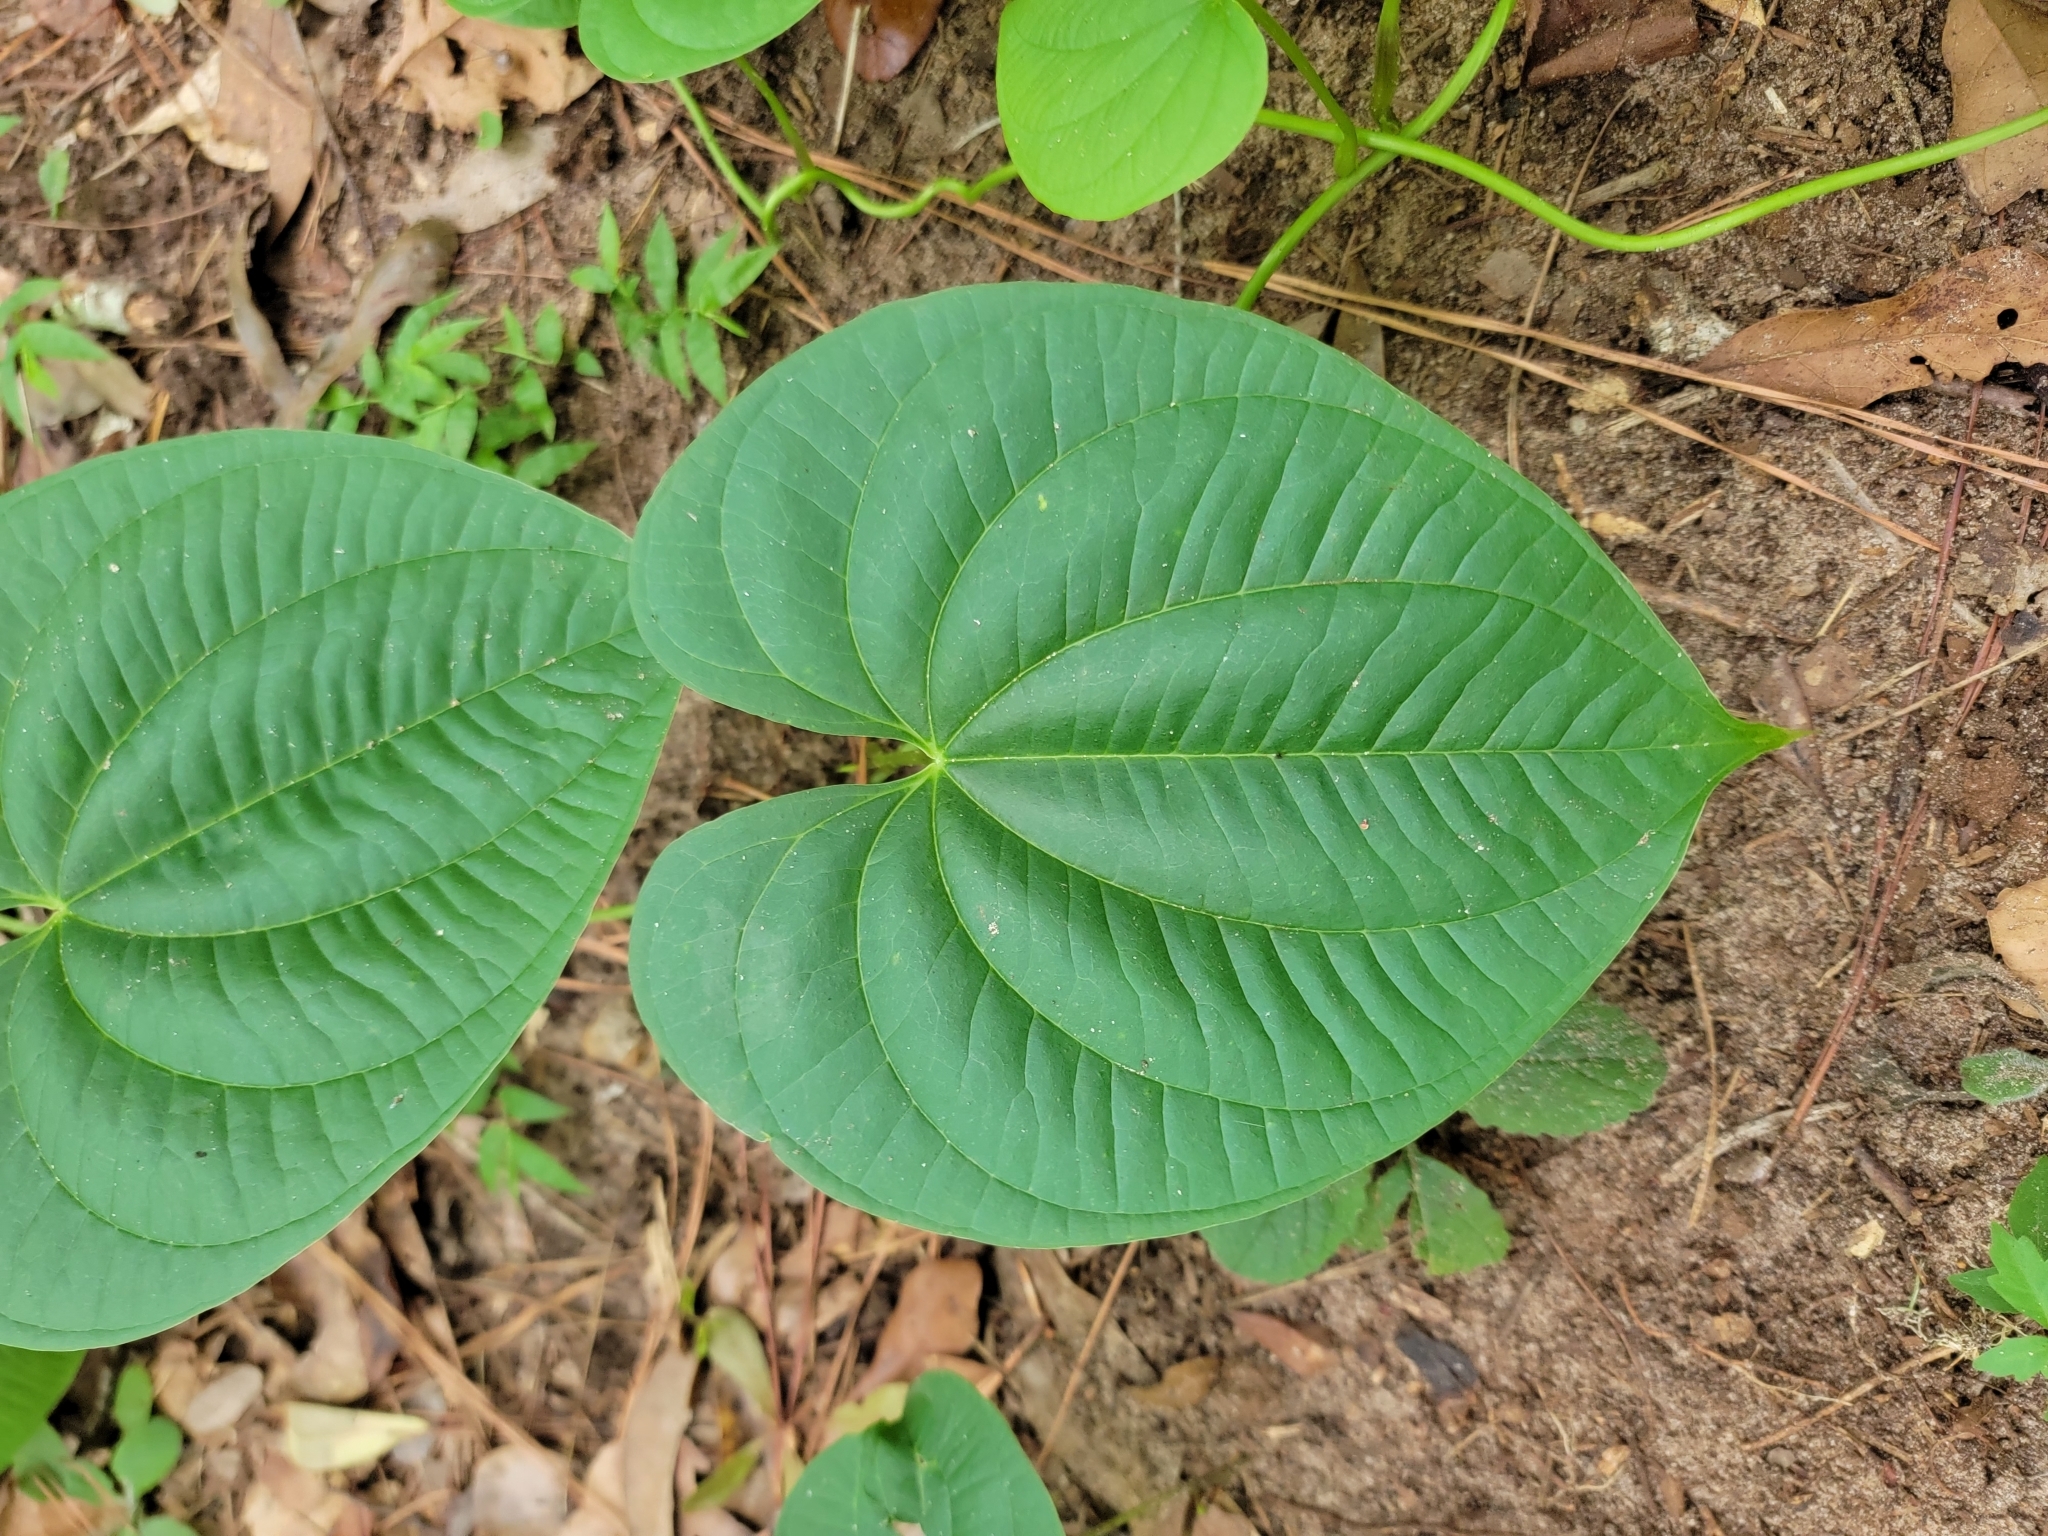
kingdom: Plantae
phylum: Tracheophyta
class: Liliopsida
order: Dioscoreales
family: Dioscoreaceae
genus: Dioscorea
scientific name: Dioscorea bulbifera
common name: Air yam
